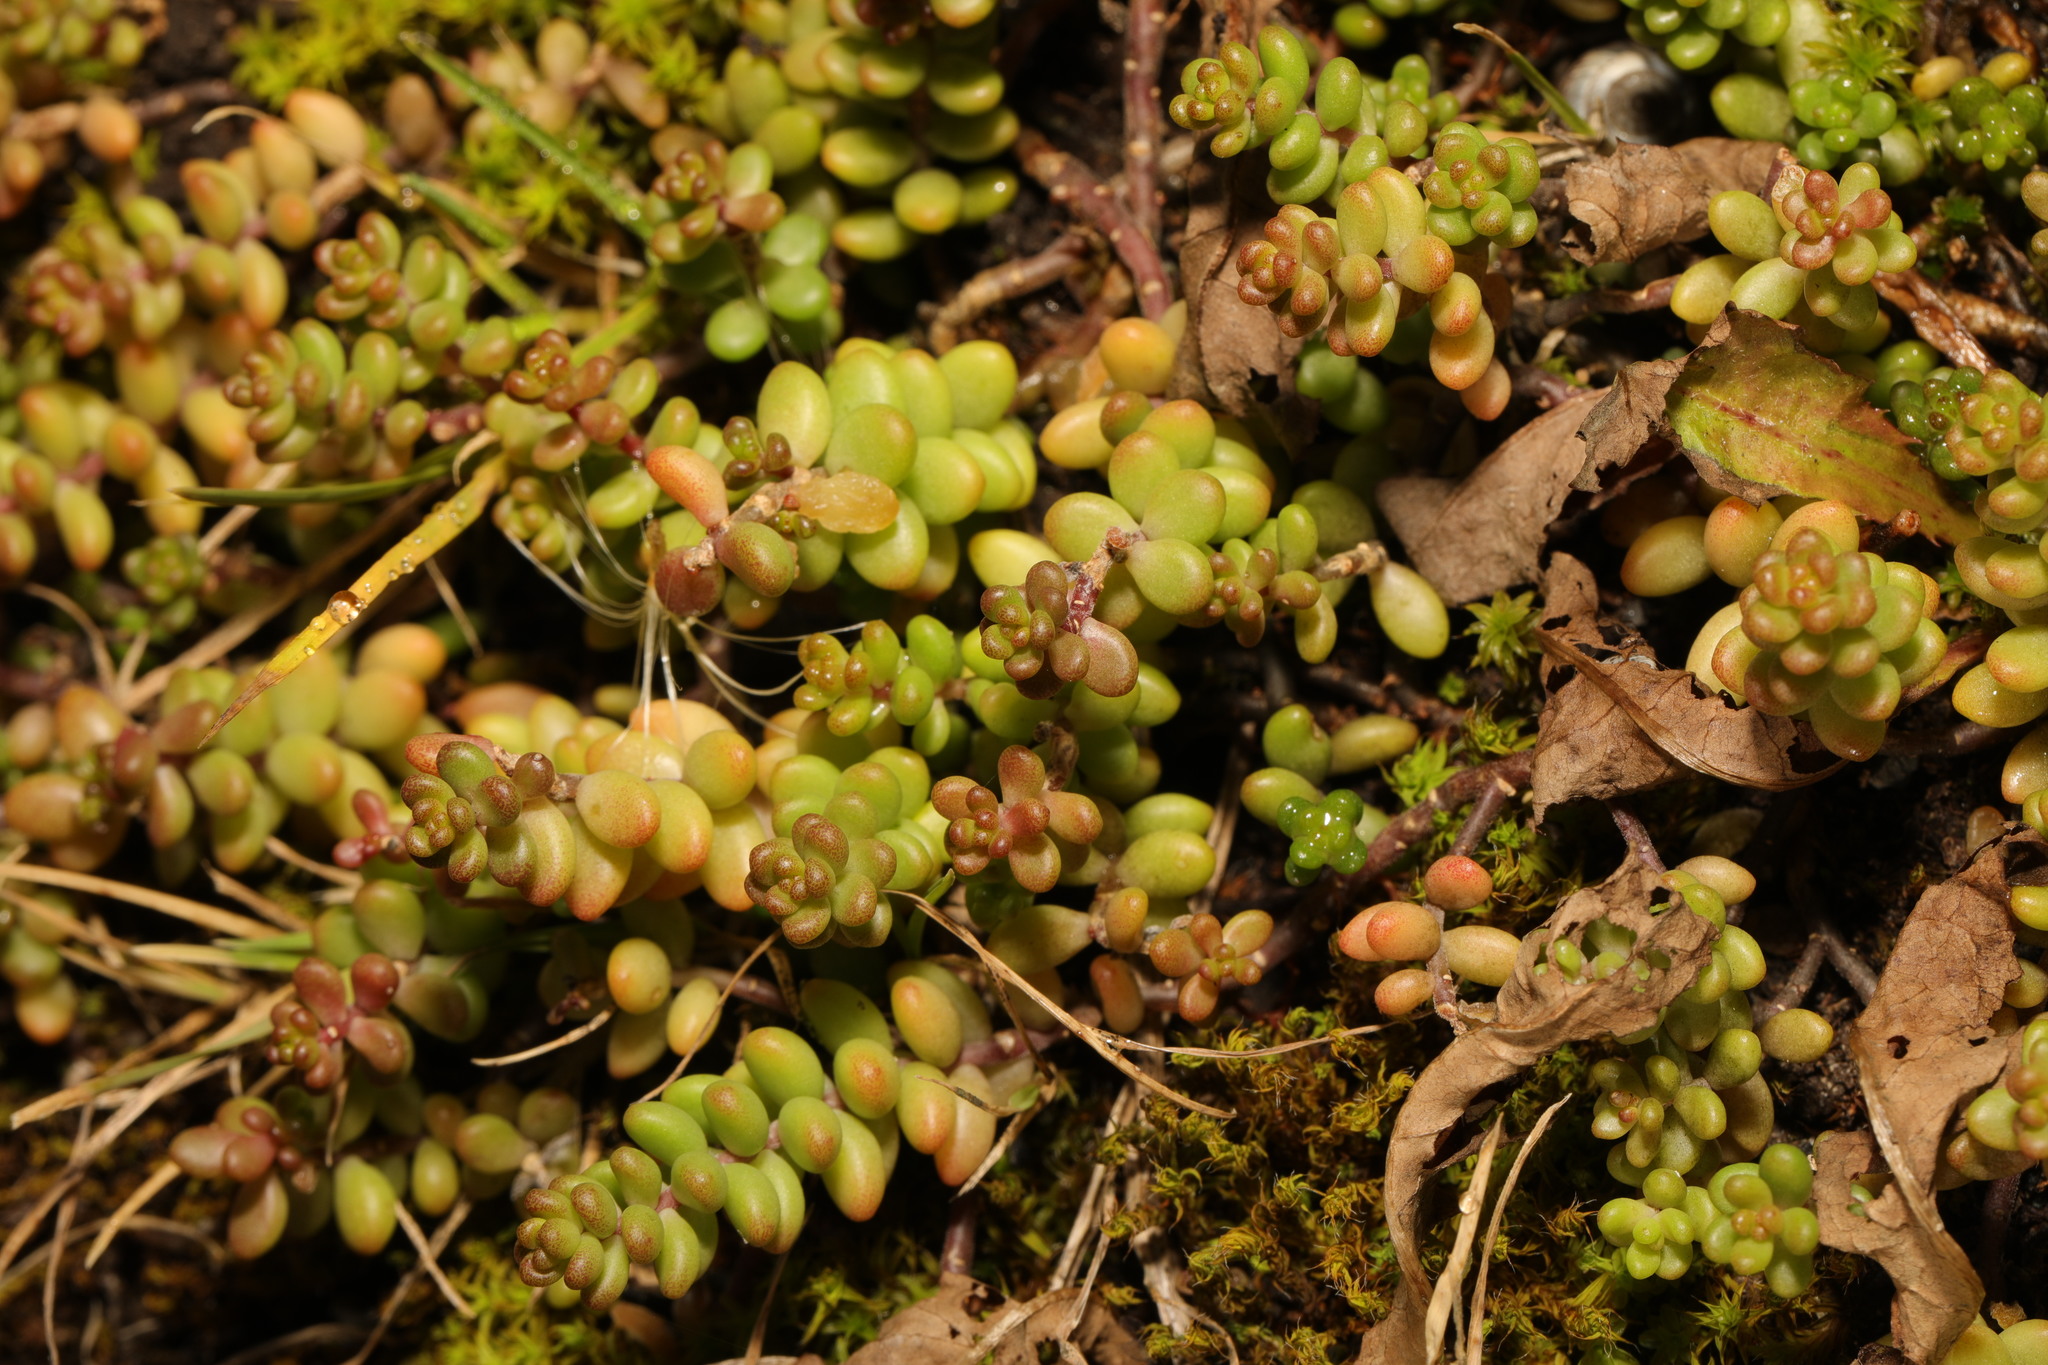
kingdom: Plantae
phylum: Tracheophyta
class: Magnoliopsida
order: Saxifragales
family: Crassulaceae
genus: Sedum
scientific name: Sedum album
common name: White stonecrop
